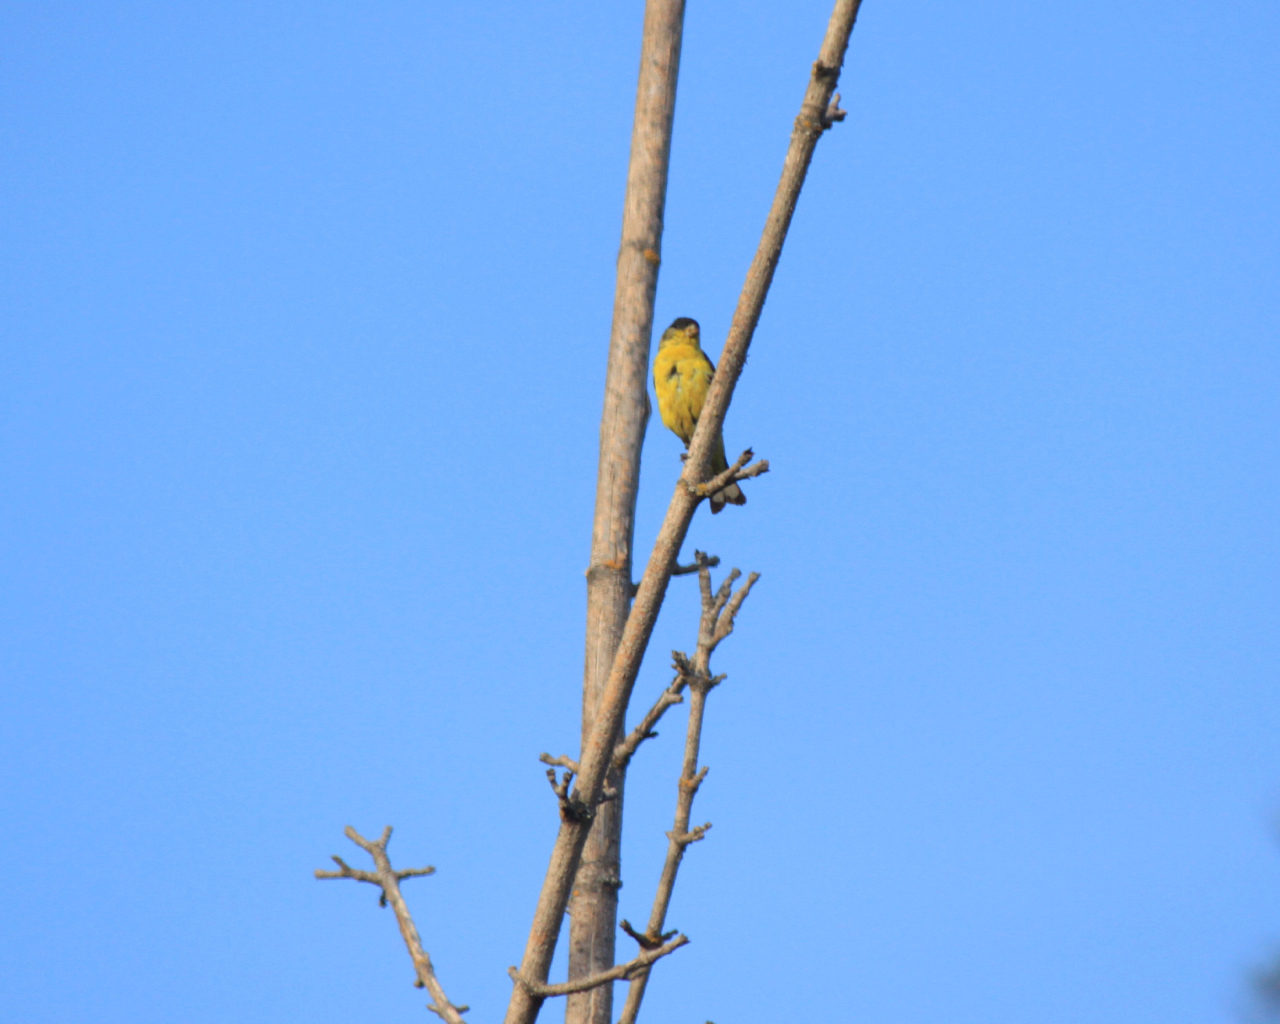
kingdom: Animalia
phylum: Chordata
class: Aves
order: Passeriformes
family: Fringillidae
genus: Spinus
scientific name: Spinus psaltria
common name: Lesser goldfinch
